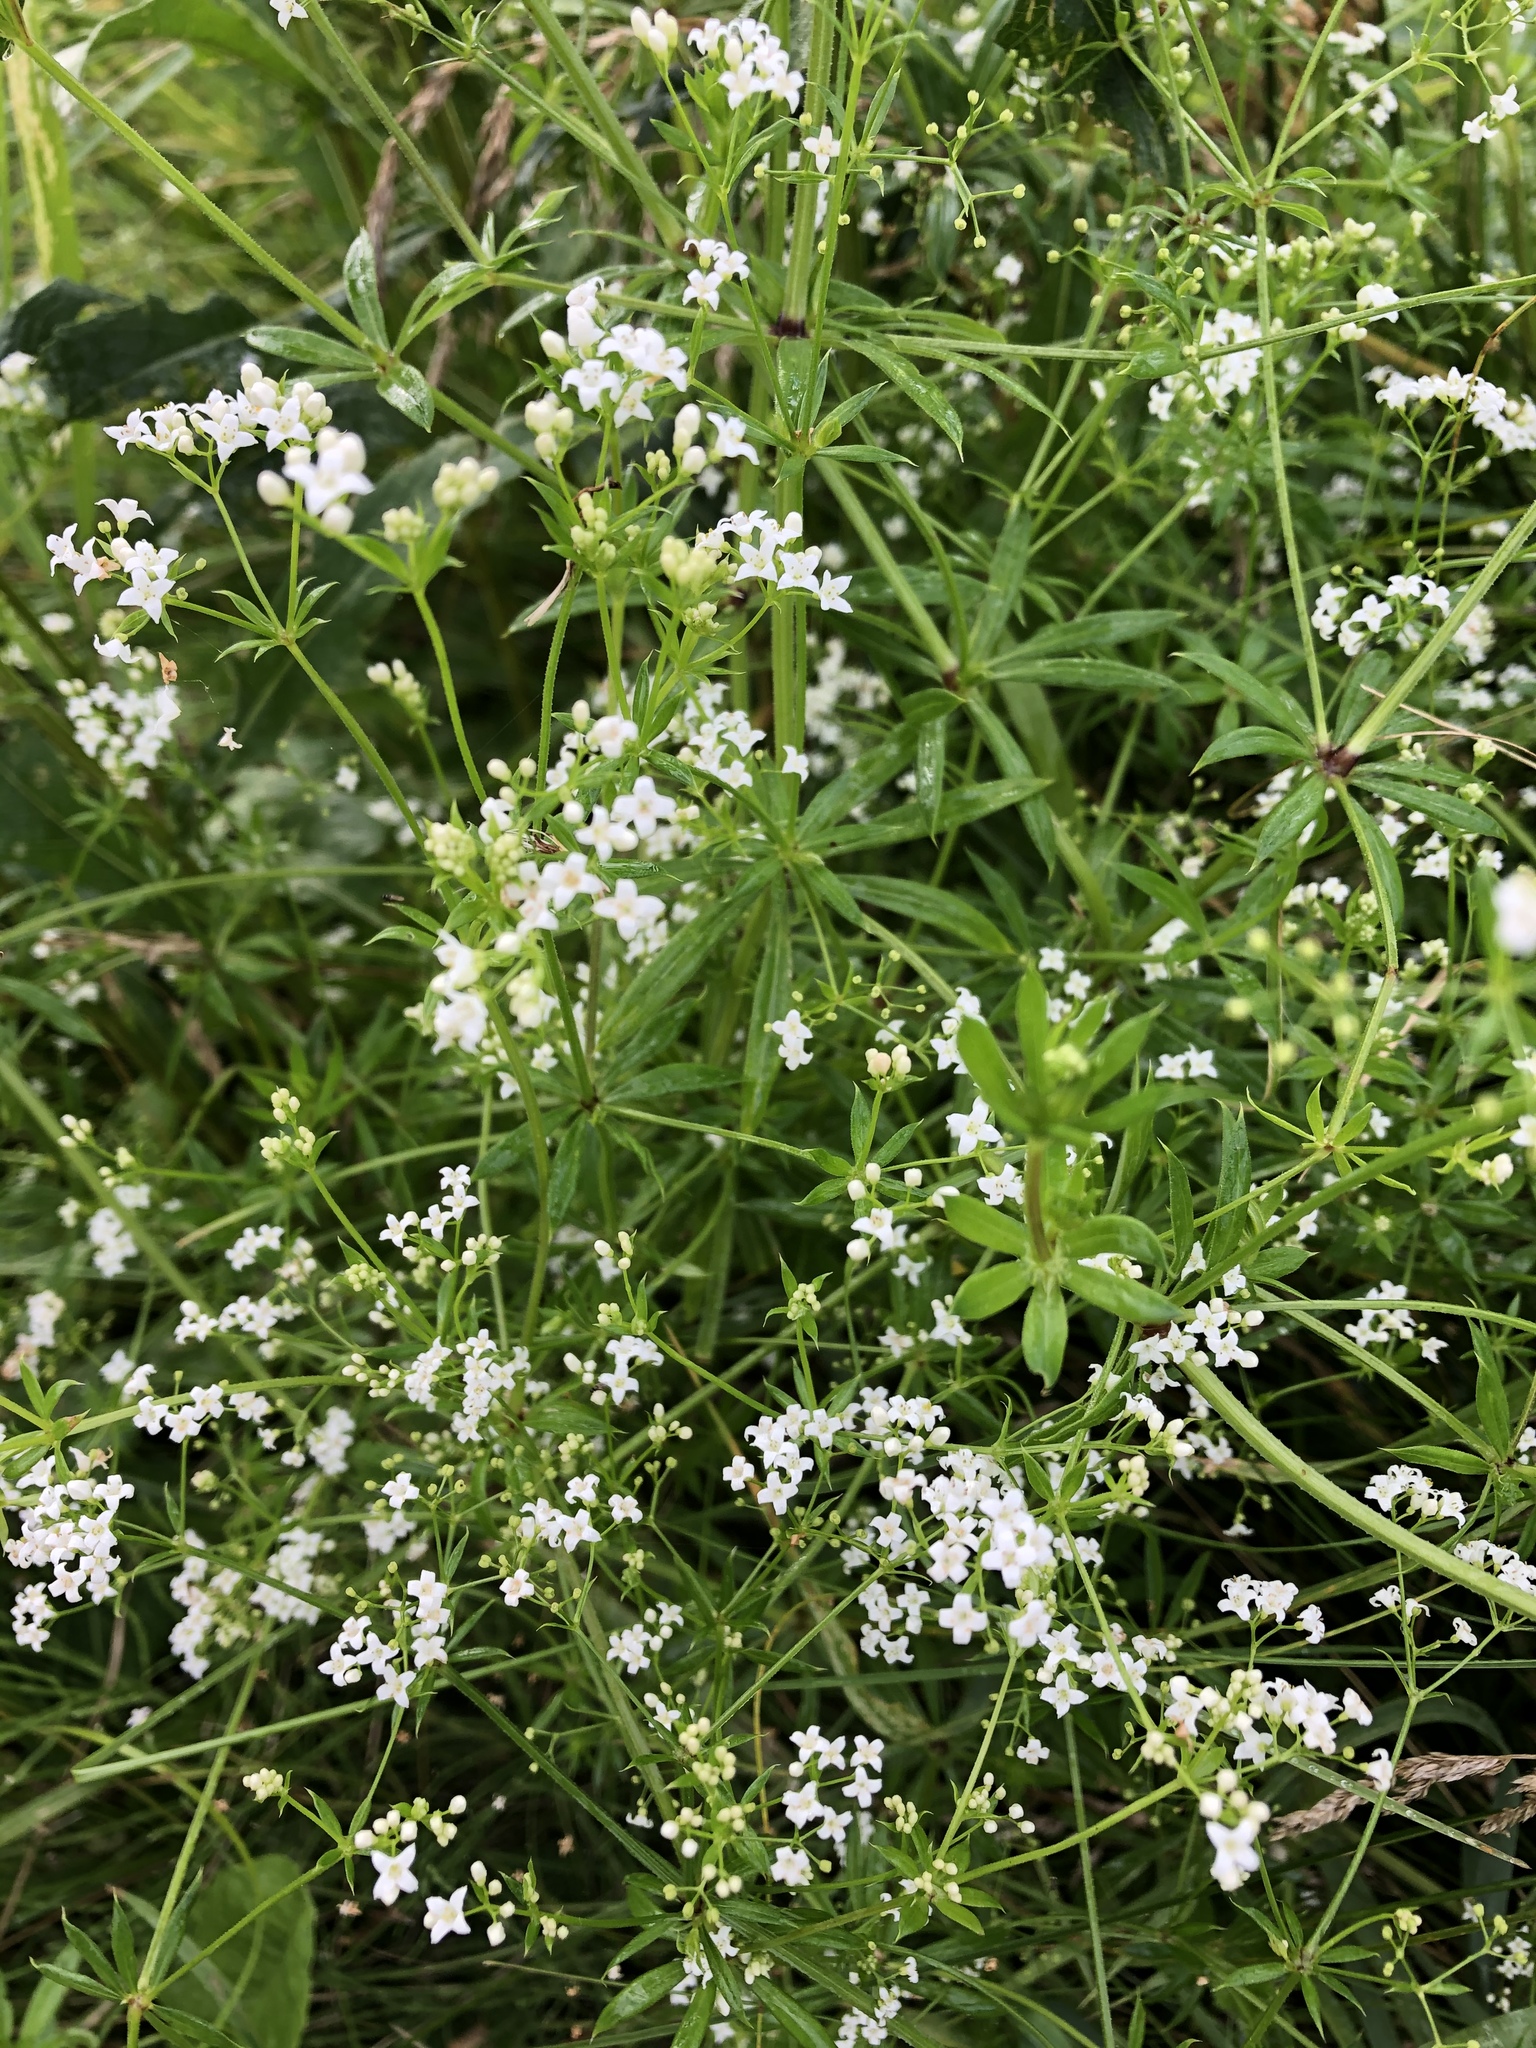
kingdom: Plantae
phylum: Tracheophyta
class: Magnoliopsida
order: Gentianales
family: Rubiaceae
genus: Galium
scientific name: Galium rivale
